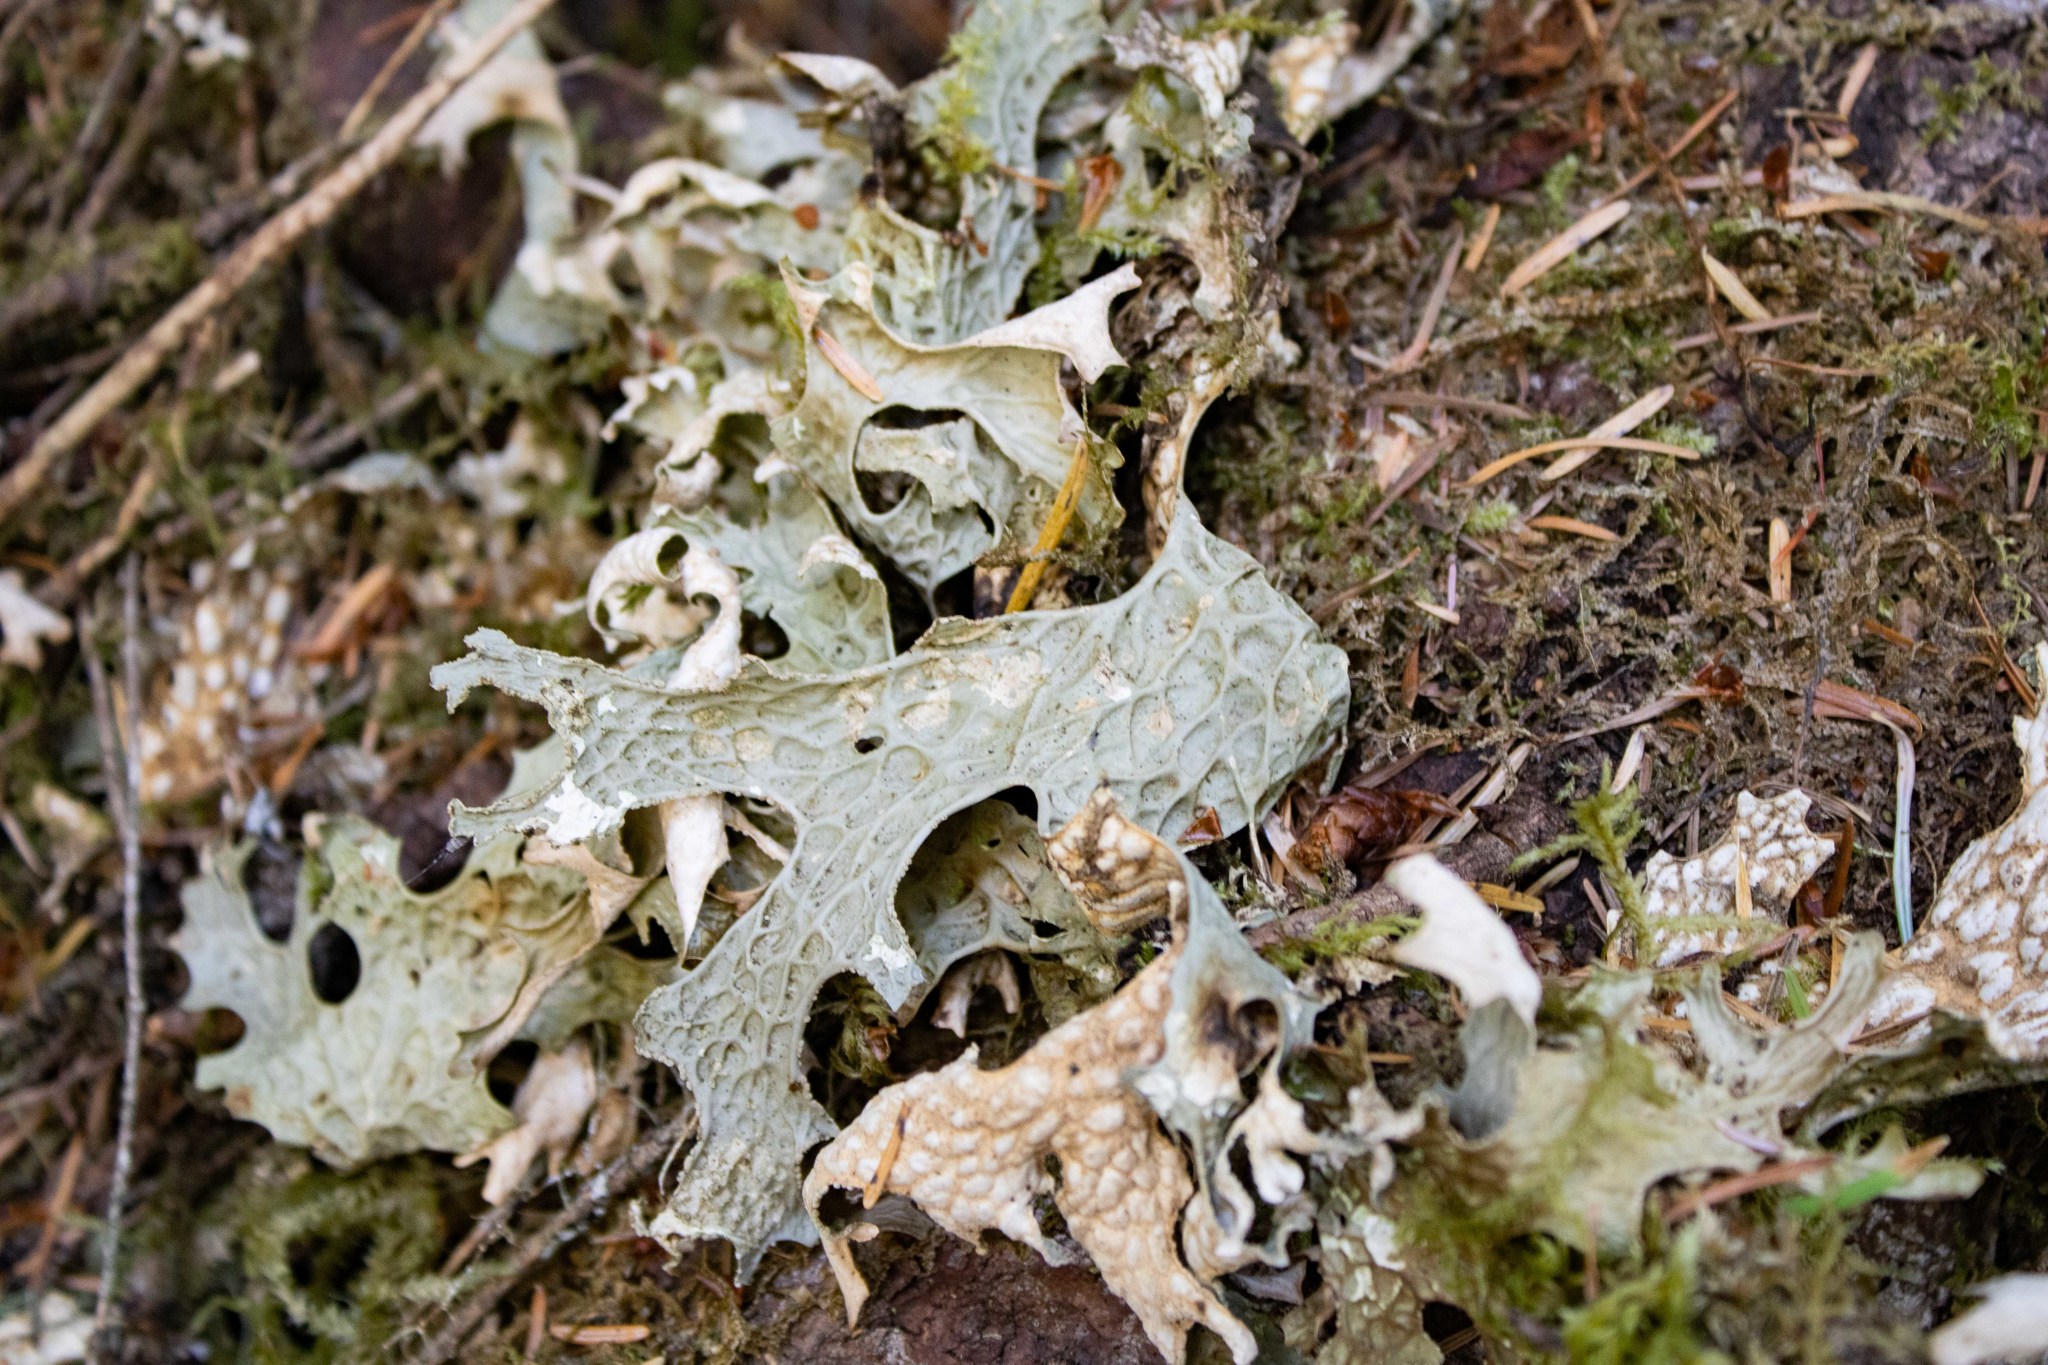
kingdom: Fungi
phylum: Ascomycota
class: Lecanoromycetes
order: Peltigerales
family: Lobariaceae
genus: Lobaria
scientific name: Lobaria pulmonaria
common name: Lungwort
